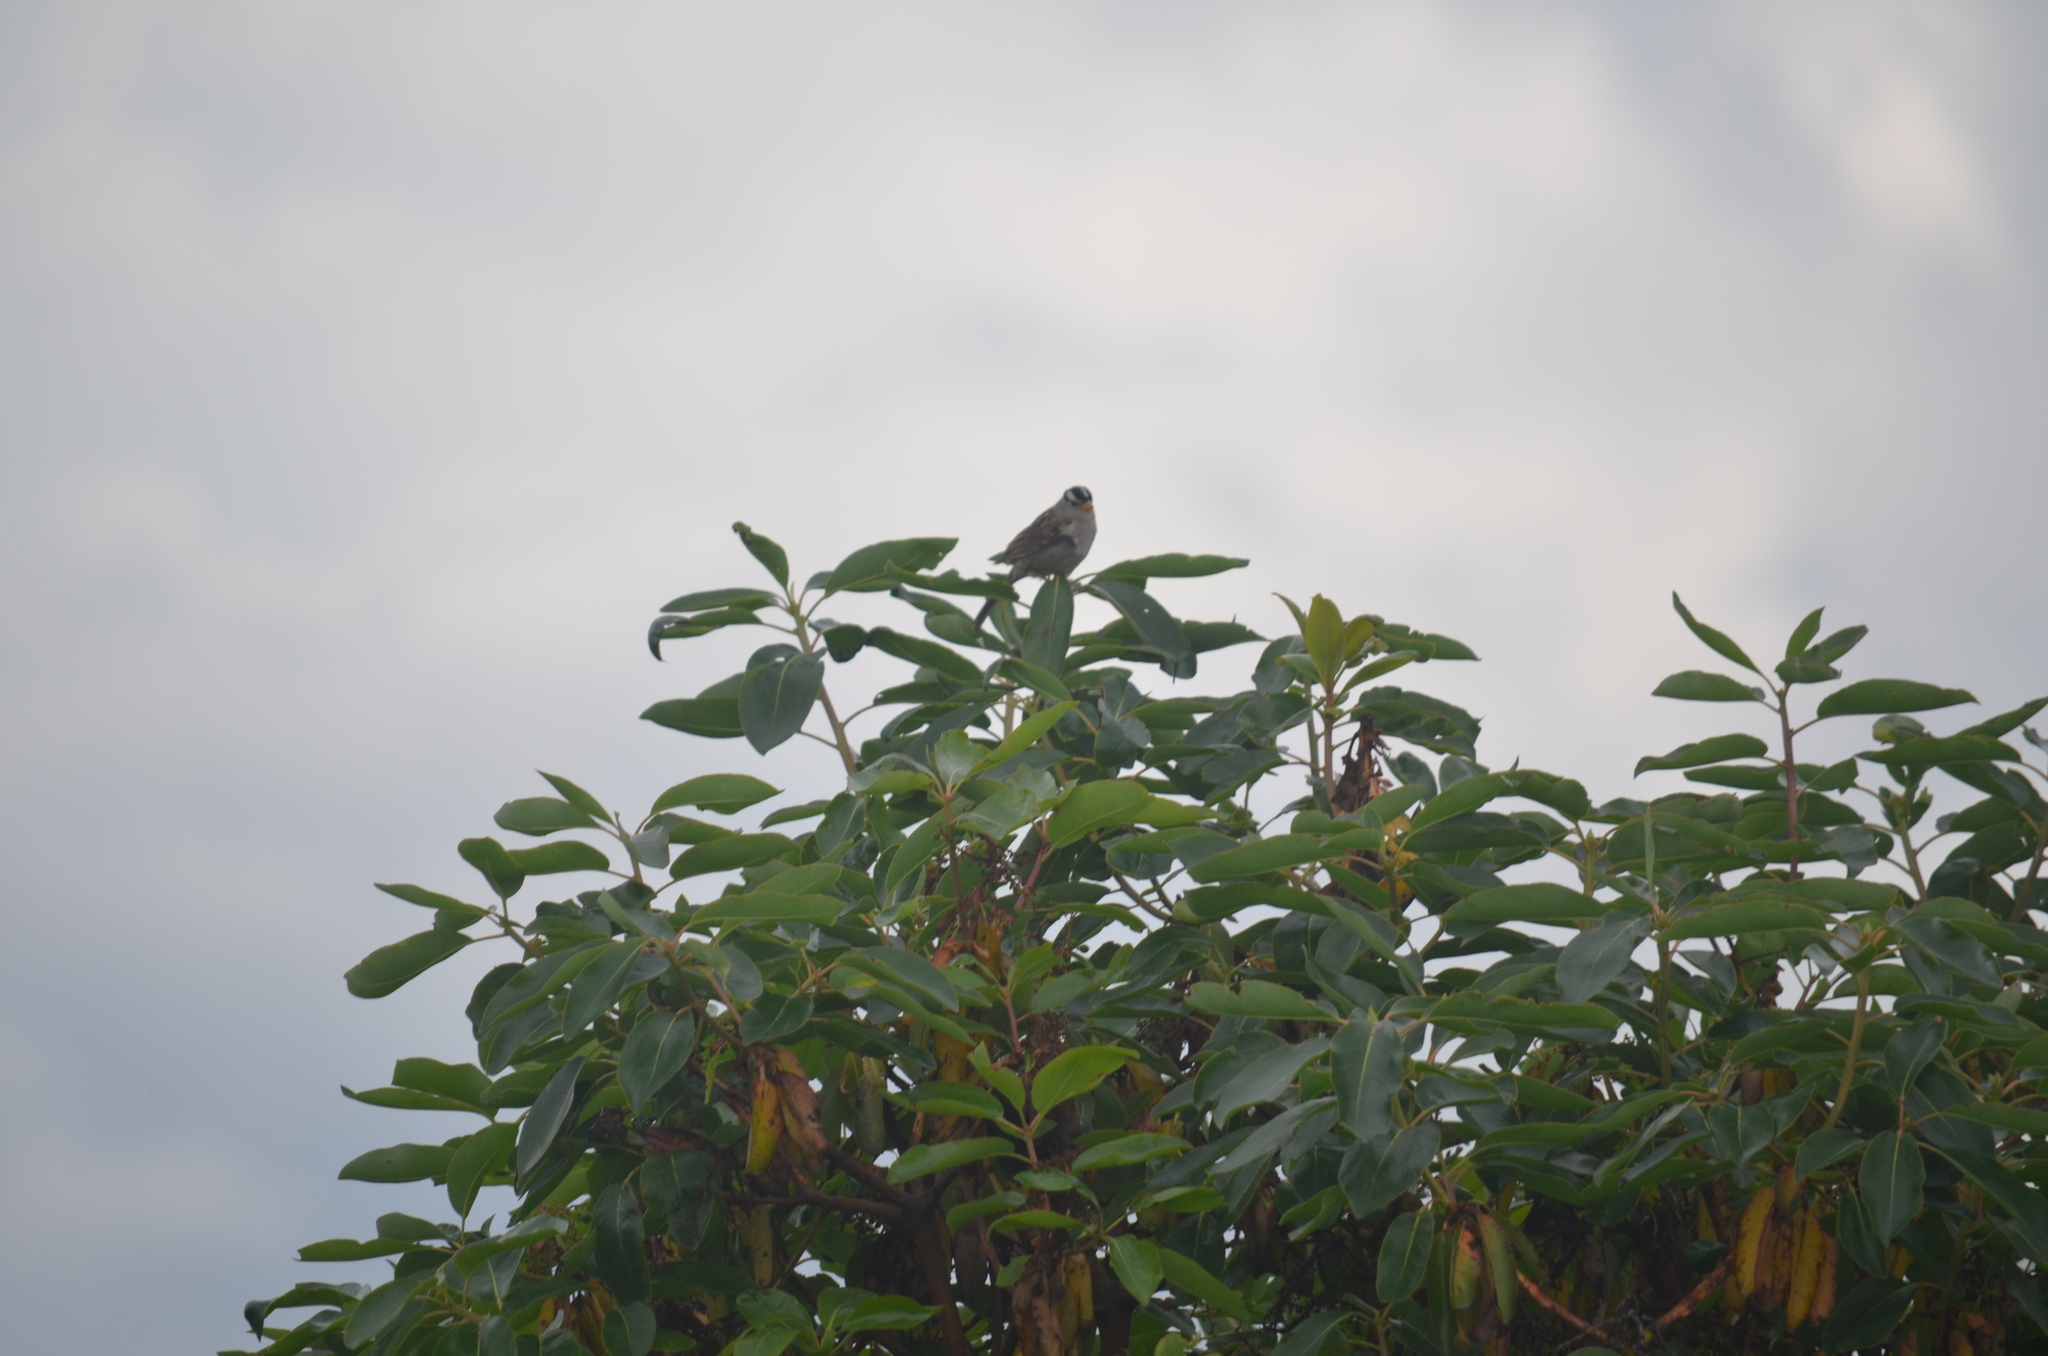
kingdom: Animalia
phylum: Chordata
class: Aves
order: Passeriformes
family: Passerellidae
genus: Zonotrichia
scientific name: Zonotrichia leucophrys
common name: White-crowned sparrow
